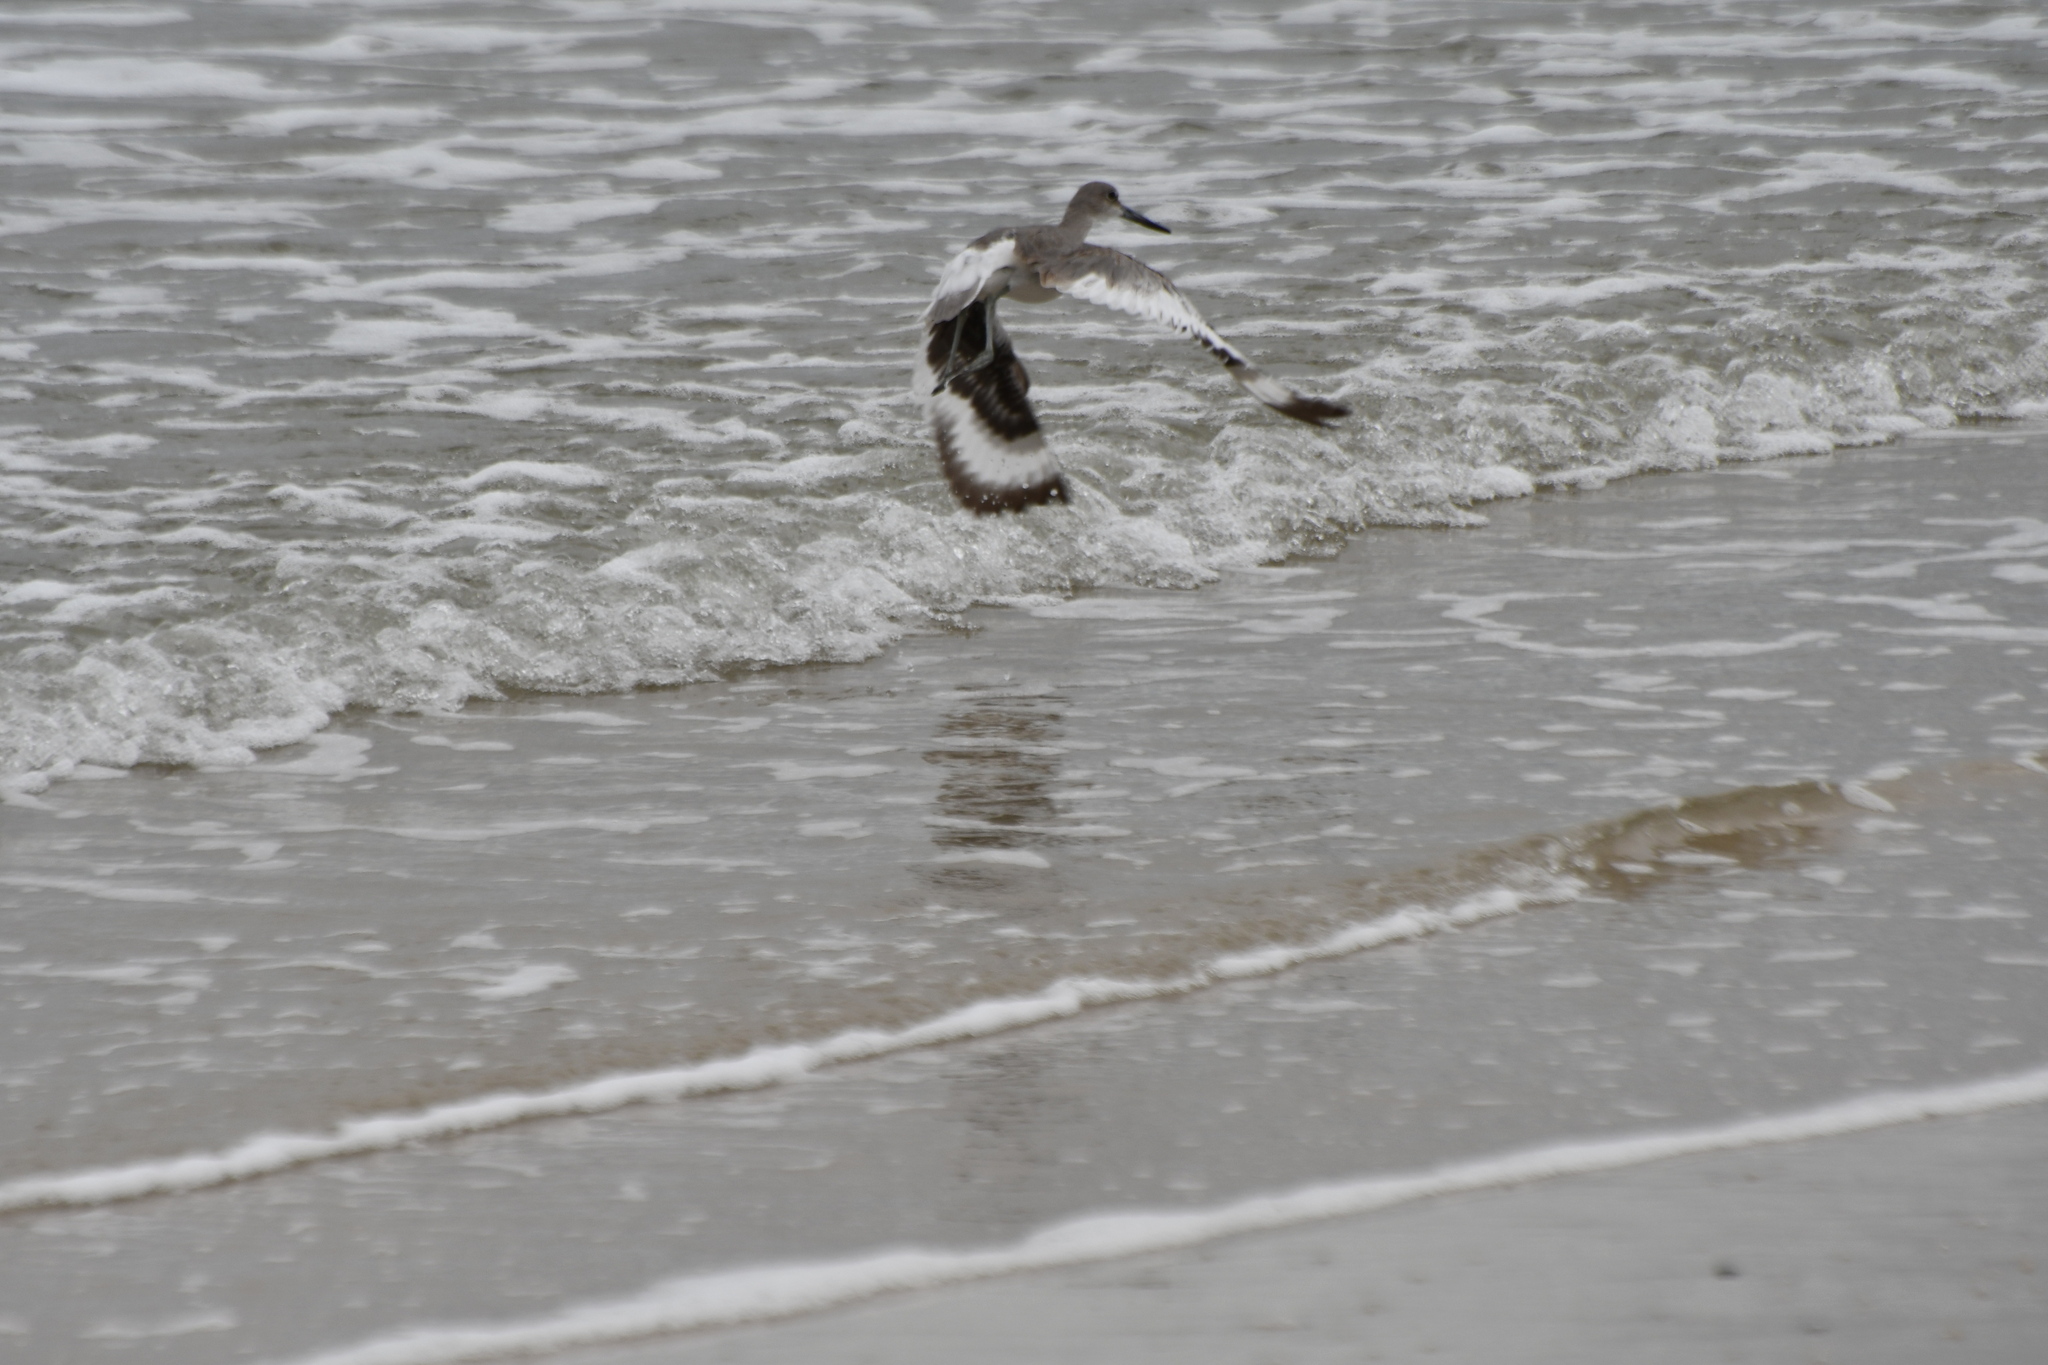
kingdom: Animalia
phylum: Chordata
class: Aves
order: Charadriiformes
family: Scolopacidae
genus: Tringa
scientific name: Tringa semipalmata
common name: Willet
